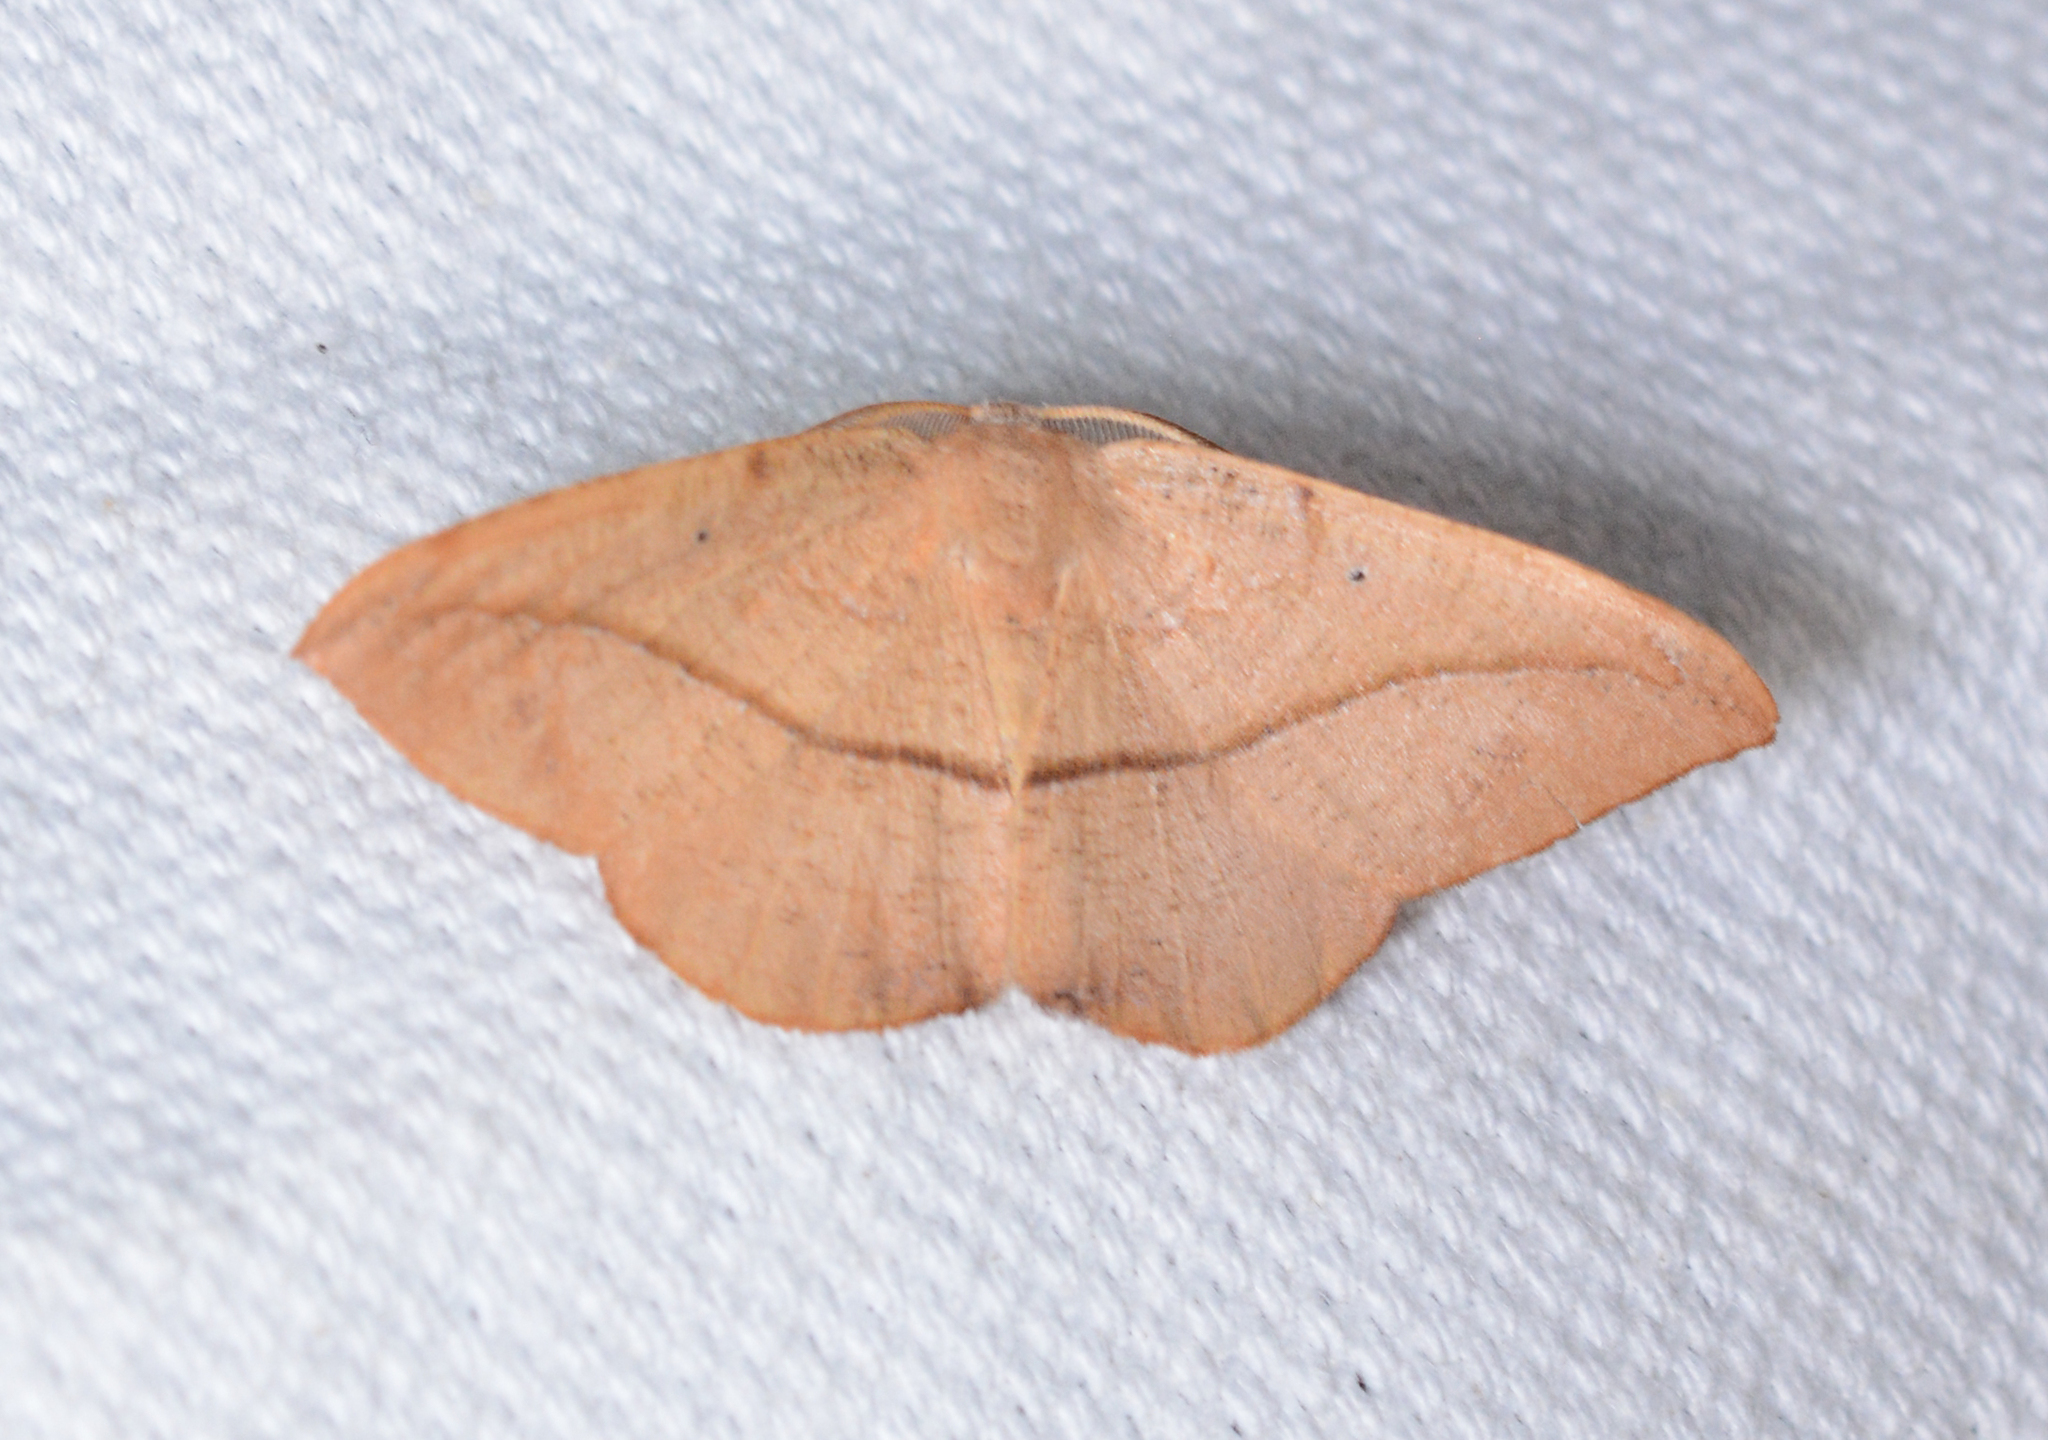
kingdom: Animalia
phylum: Arthropoda
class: Insecta
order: Lepidoptera
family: Geometridae
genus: Patalene
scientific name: Patalene olyzonaria
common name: Juniper geometer moth
